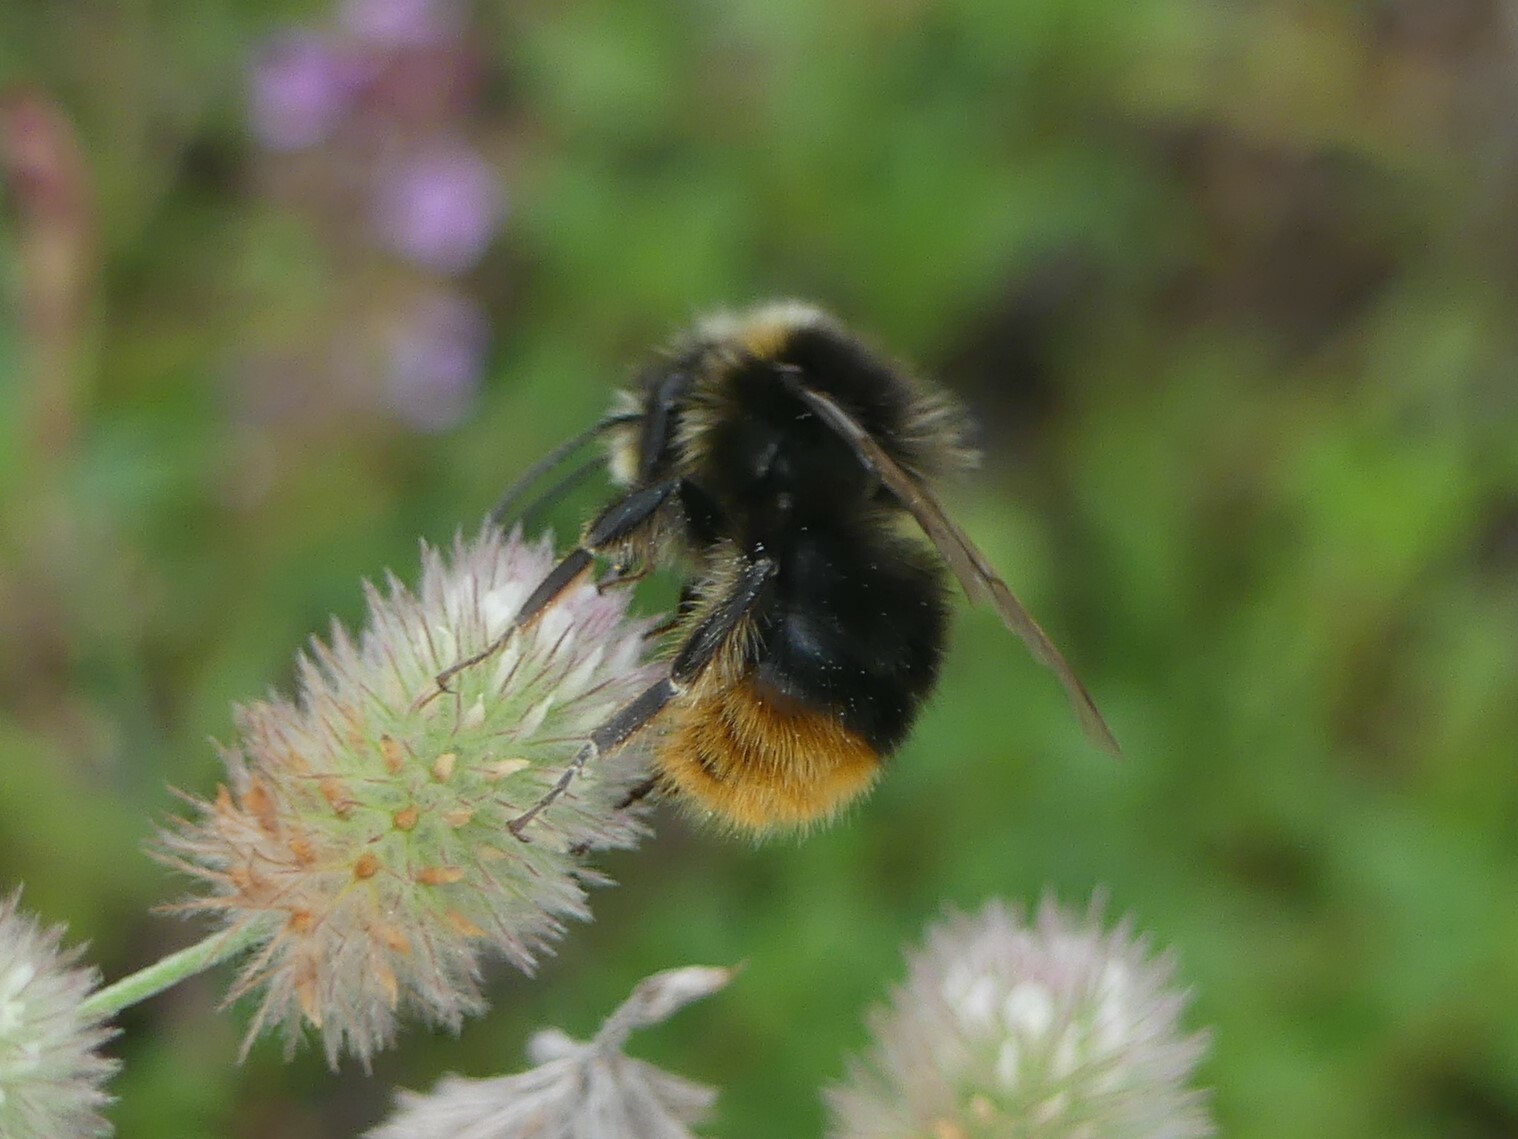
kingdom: Animalia
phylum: Arthropoda
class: Insecta
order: Hymenoptera
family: Apidae
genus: Bombus
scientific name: Bombus lapidarius
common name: Large red-tailed humble-bee
